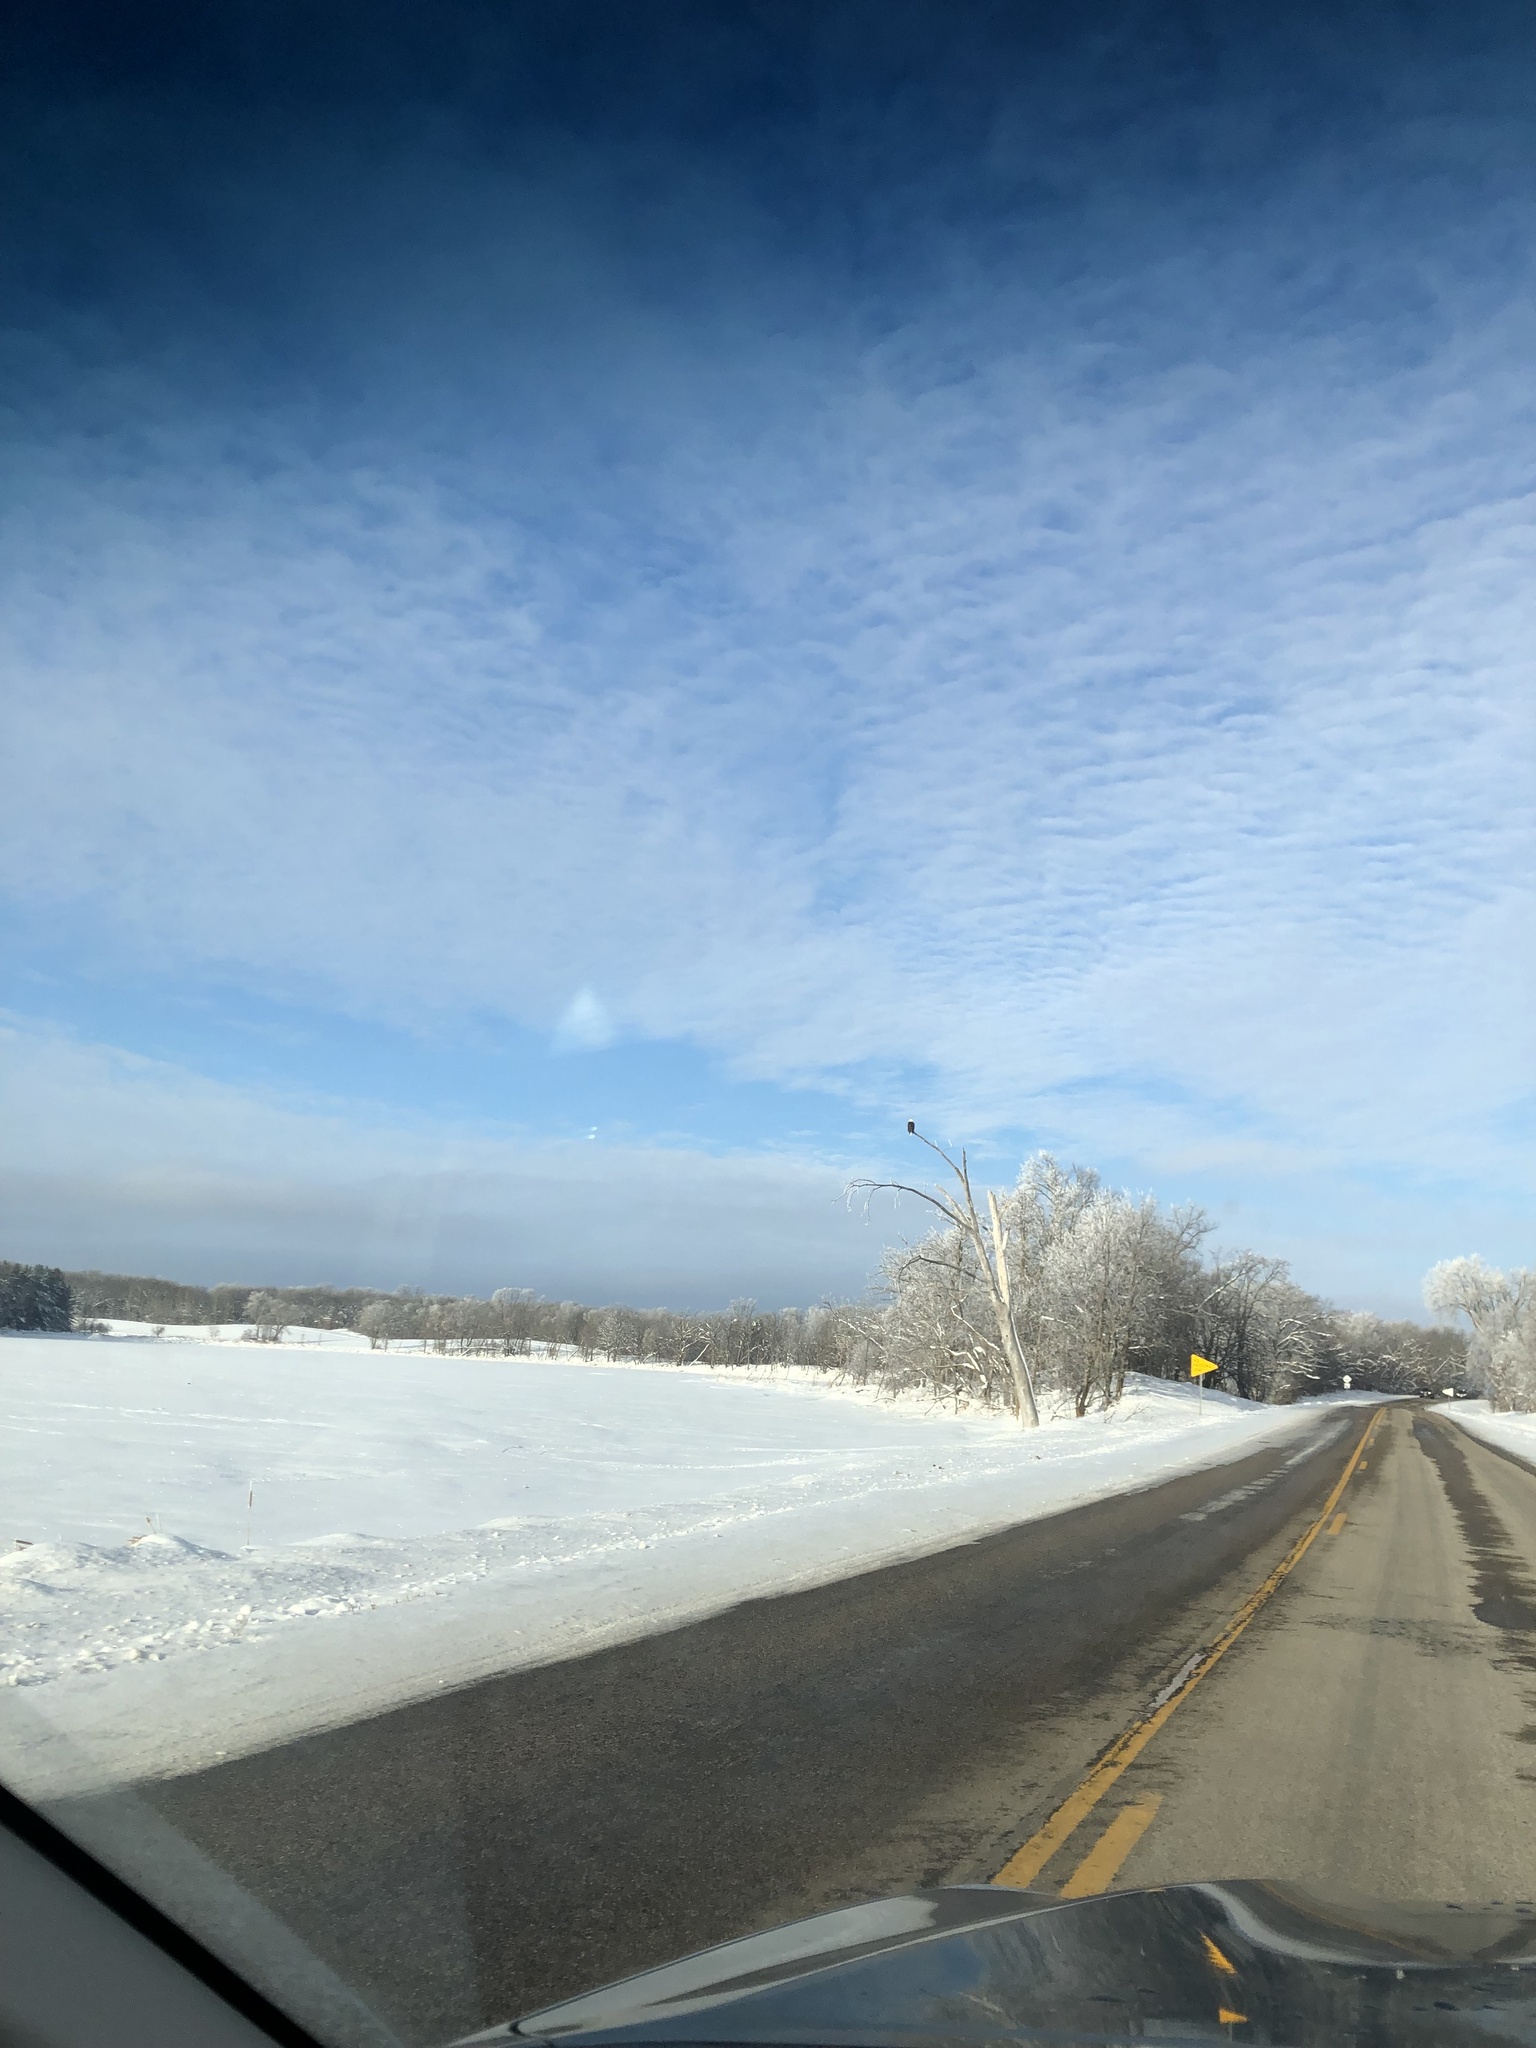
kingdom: Animalia
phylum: Chordata
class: Aves
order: Accipitriformes
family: Accipitridae
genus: Haliaeetus
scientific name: Haliaeetus leucocephalus
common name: Bald eagle
